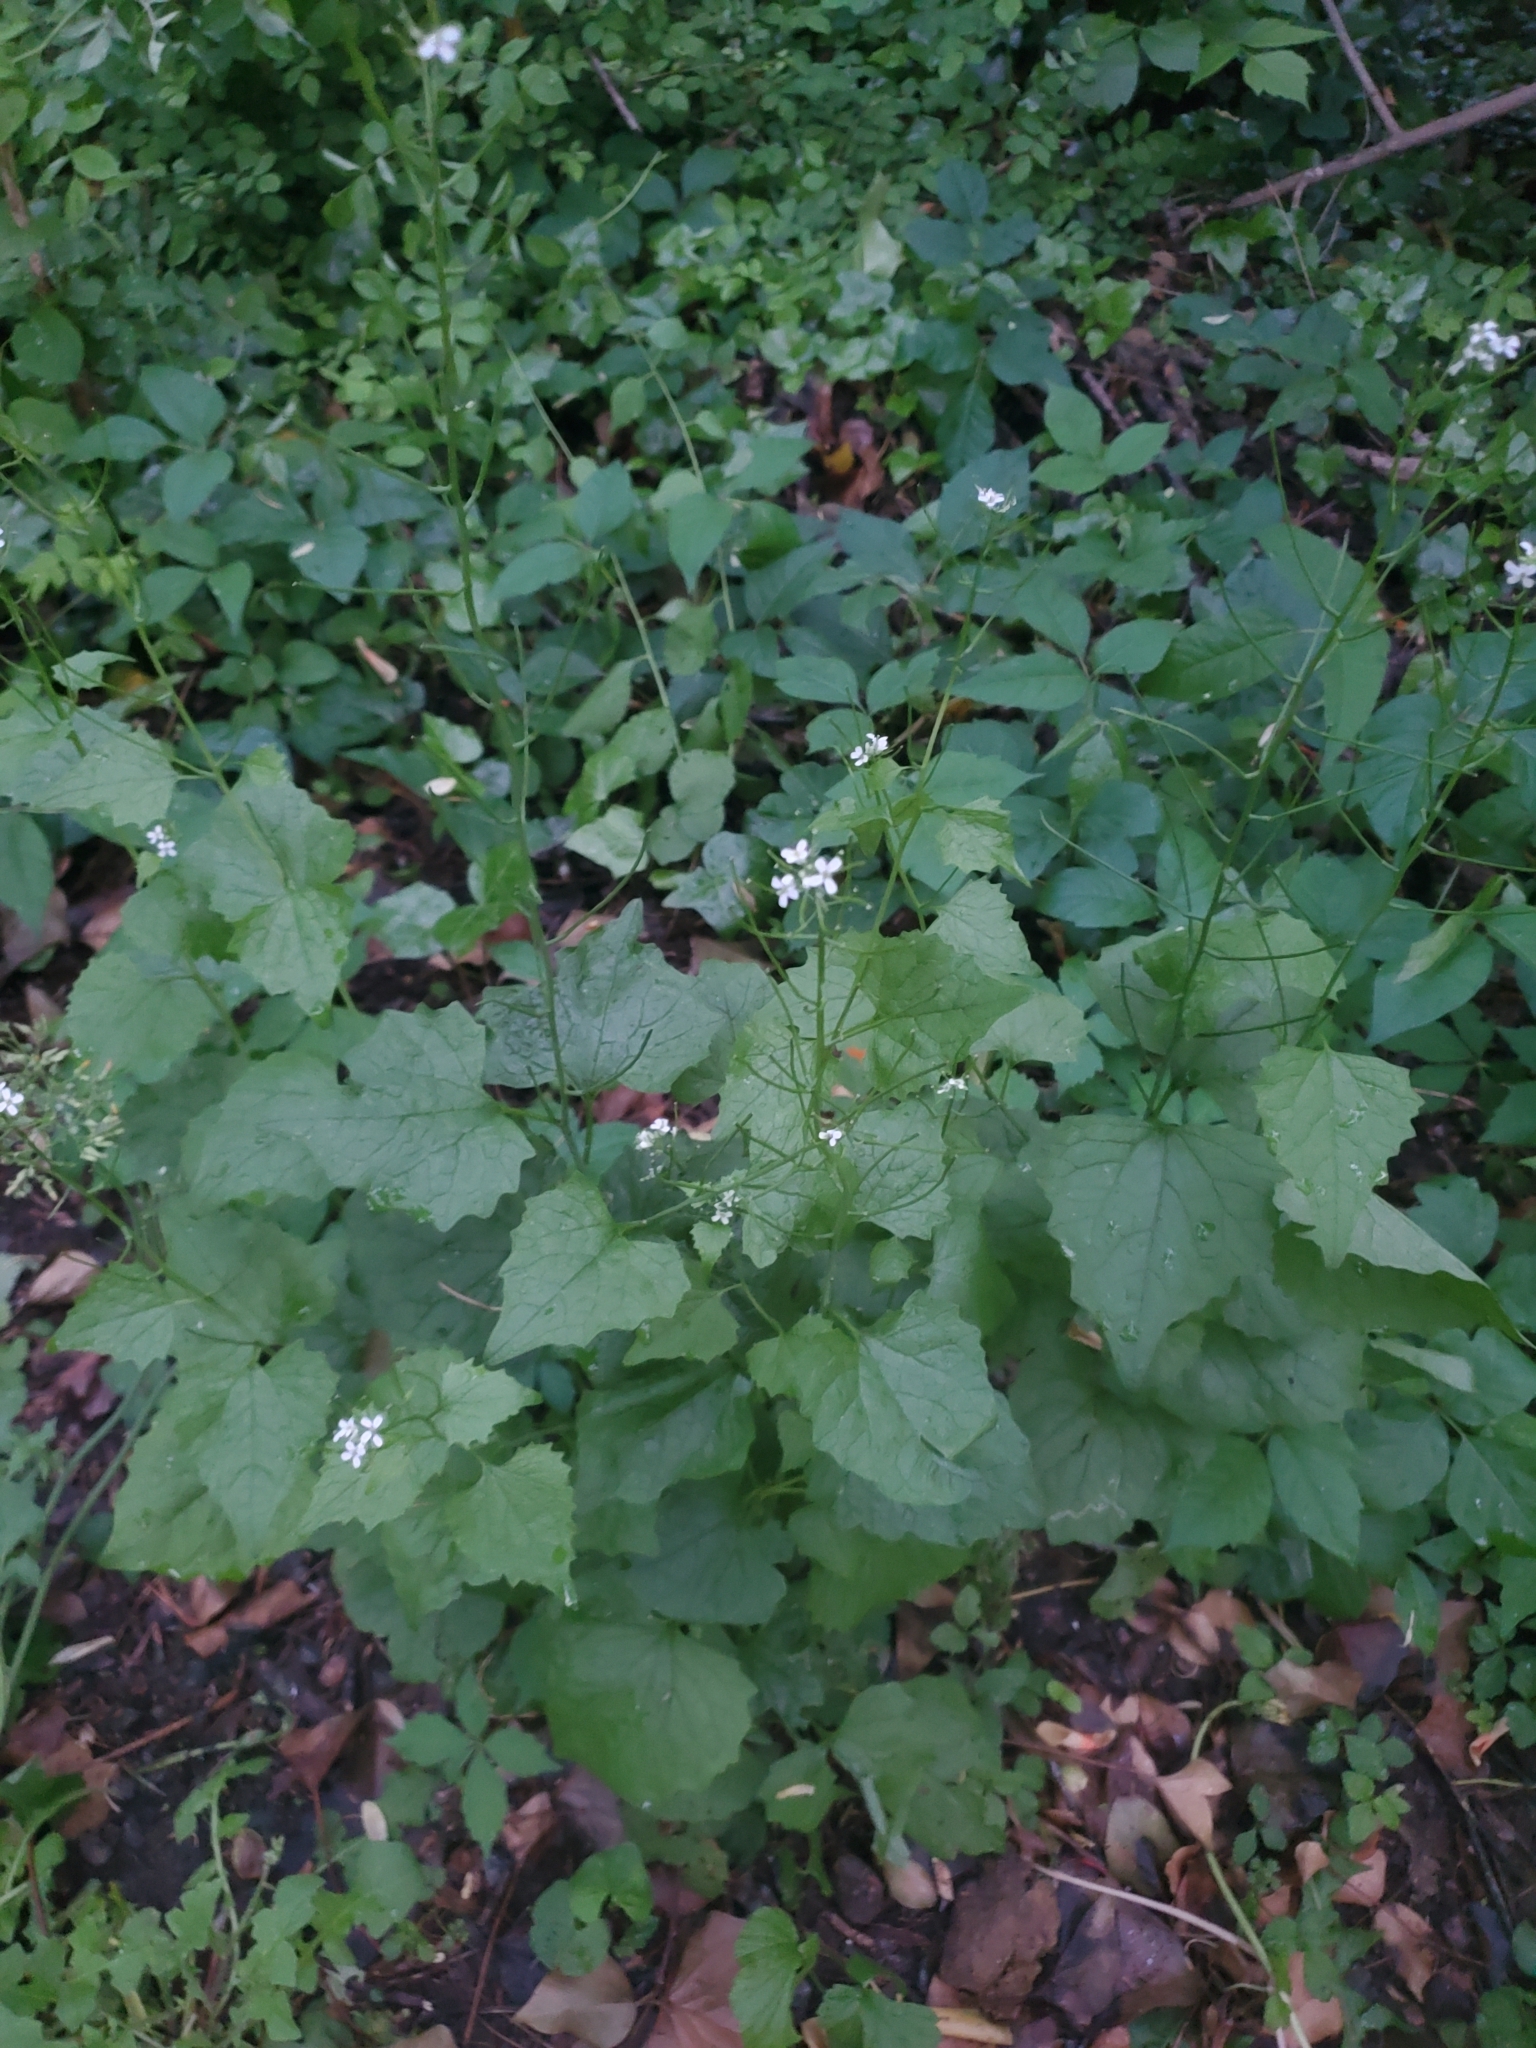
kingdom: Plantae
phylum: Tracheophyta
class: Magnoliopsida
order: Brassicales
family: Brassicaceae
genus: Alliaria
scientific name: Alliaria petiolata
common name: Garlic mustard
